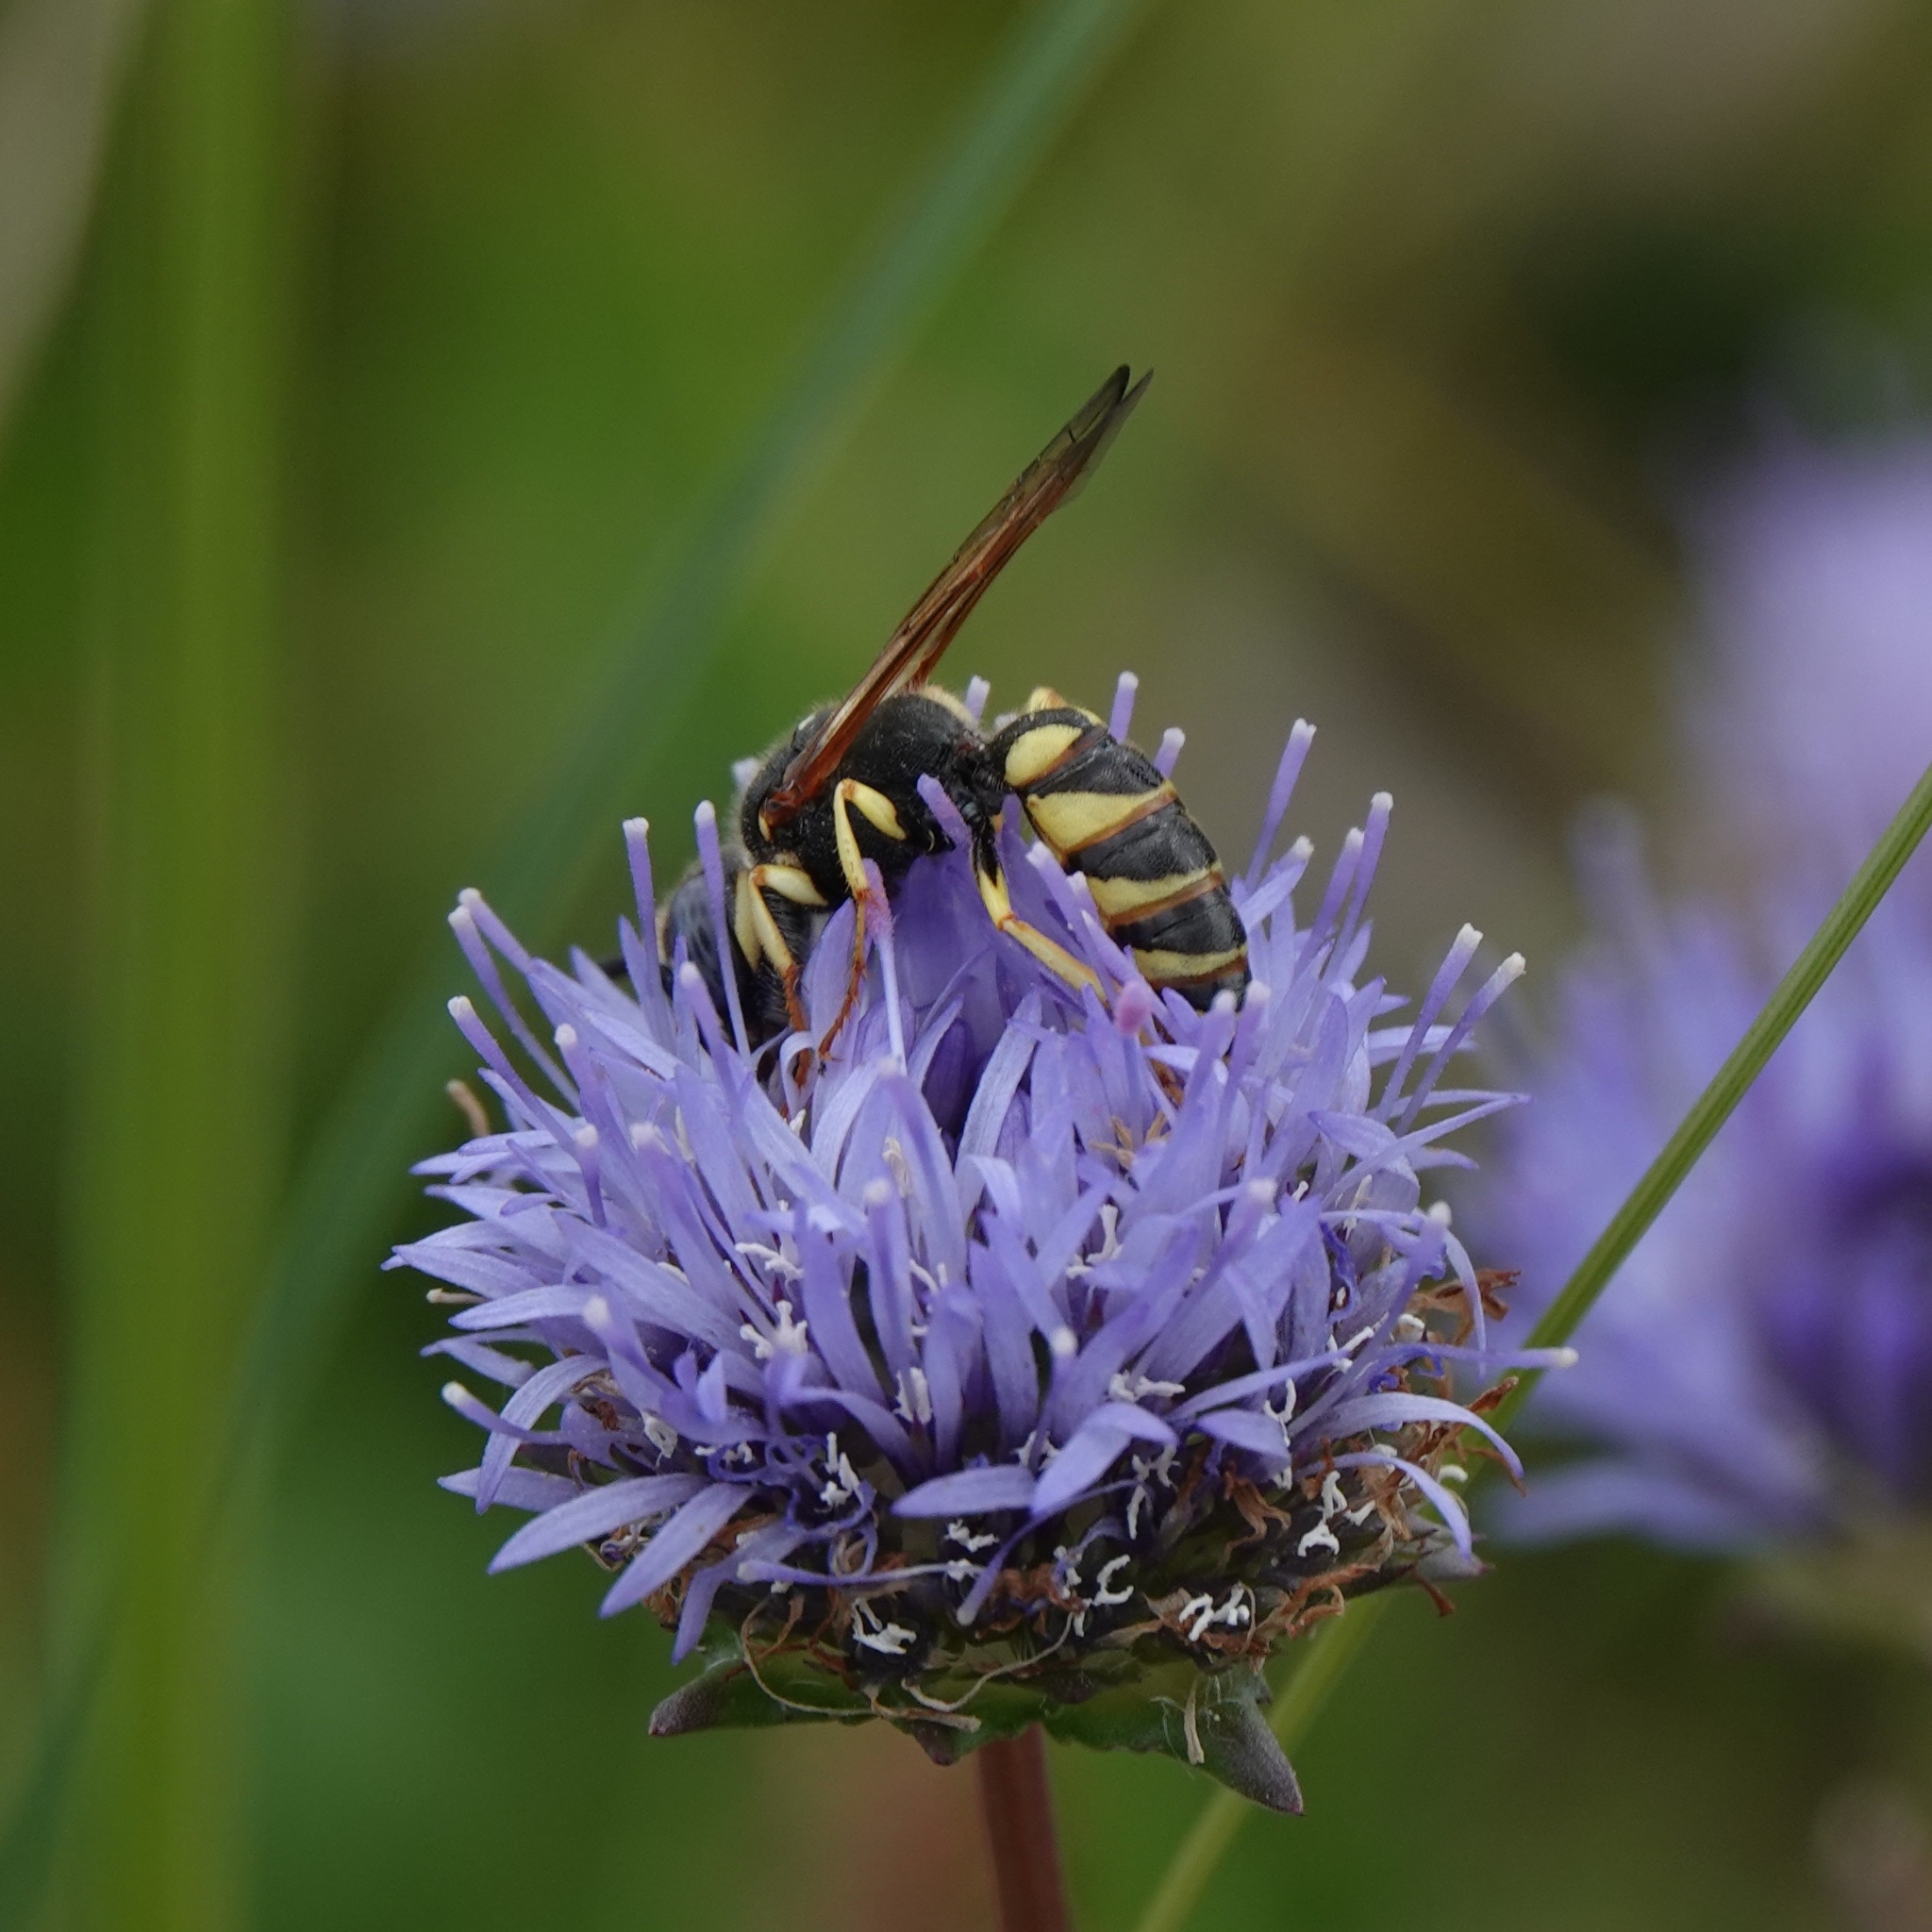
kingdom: Animalia
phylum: Arthropoda
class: Insecta
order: Hymenoptera
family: Crabronidae
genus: Philanthus
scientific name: Philanthus triangulum
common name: Bee wolf
